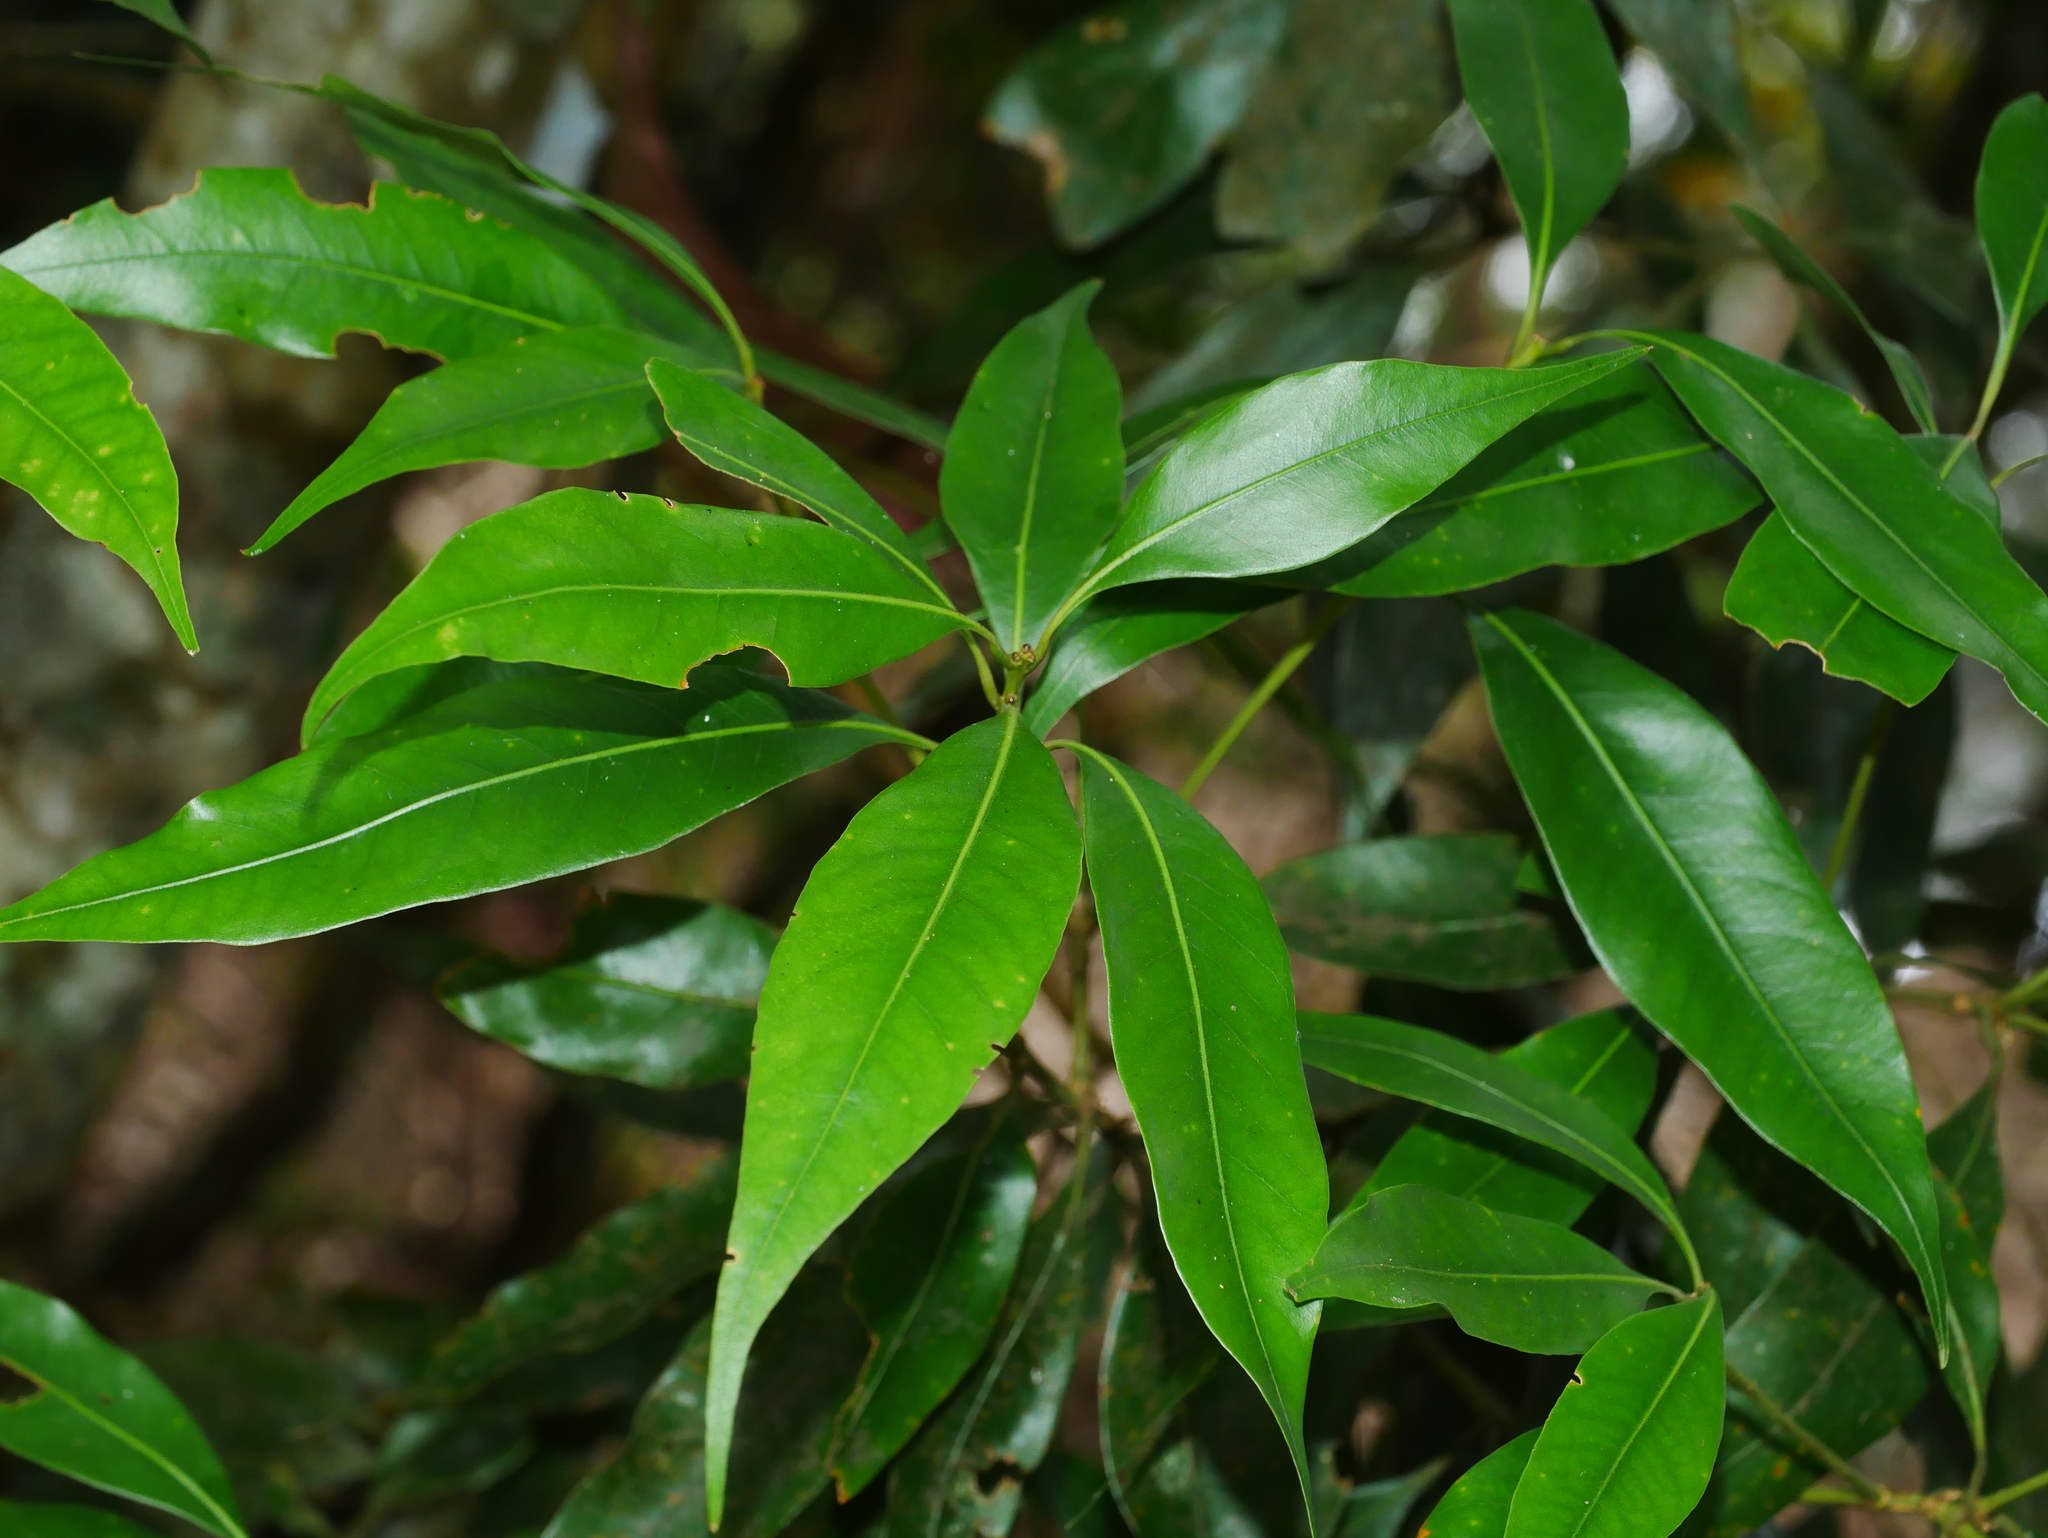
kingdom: Plantae
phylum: Tracheophyta
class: Magnoliopsida
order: Fagales
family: Fagaceae
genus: Lithocarpus
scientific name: Lithocarpus nantoensis
